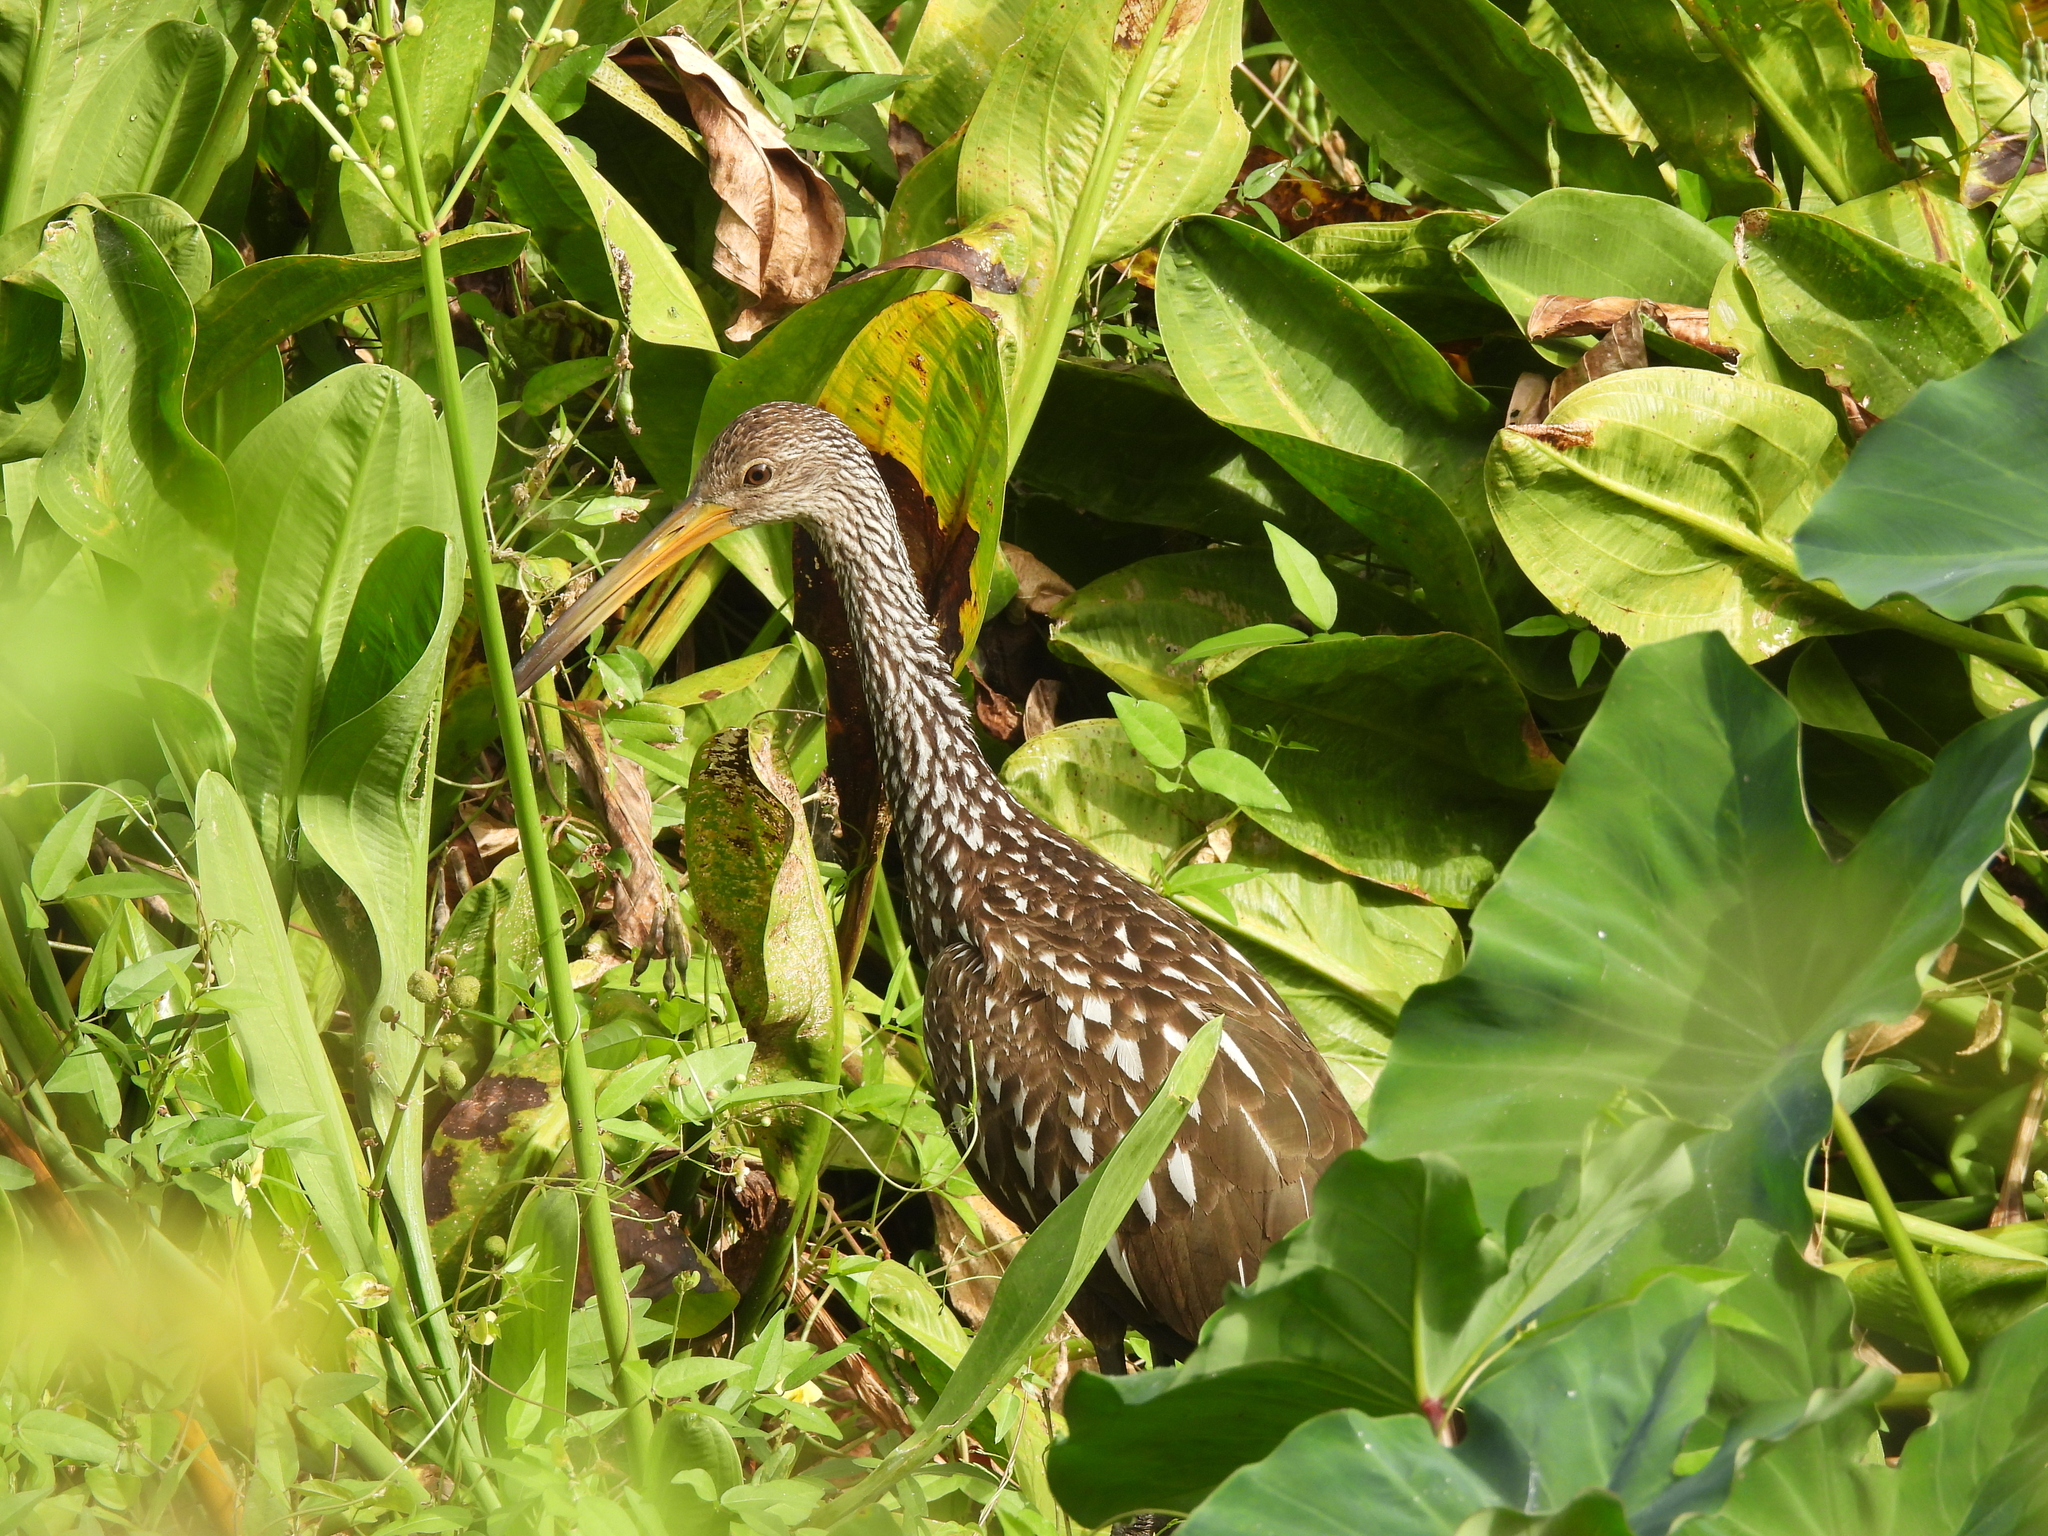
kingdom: Animalia
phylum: Chordata
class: Aves
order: Gruiformes
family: Aramidae
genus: Aramus
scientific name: Aramus guarauna
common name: Limpkin
